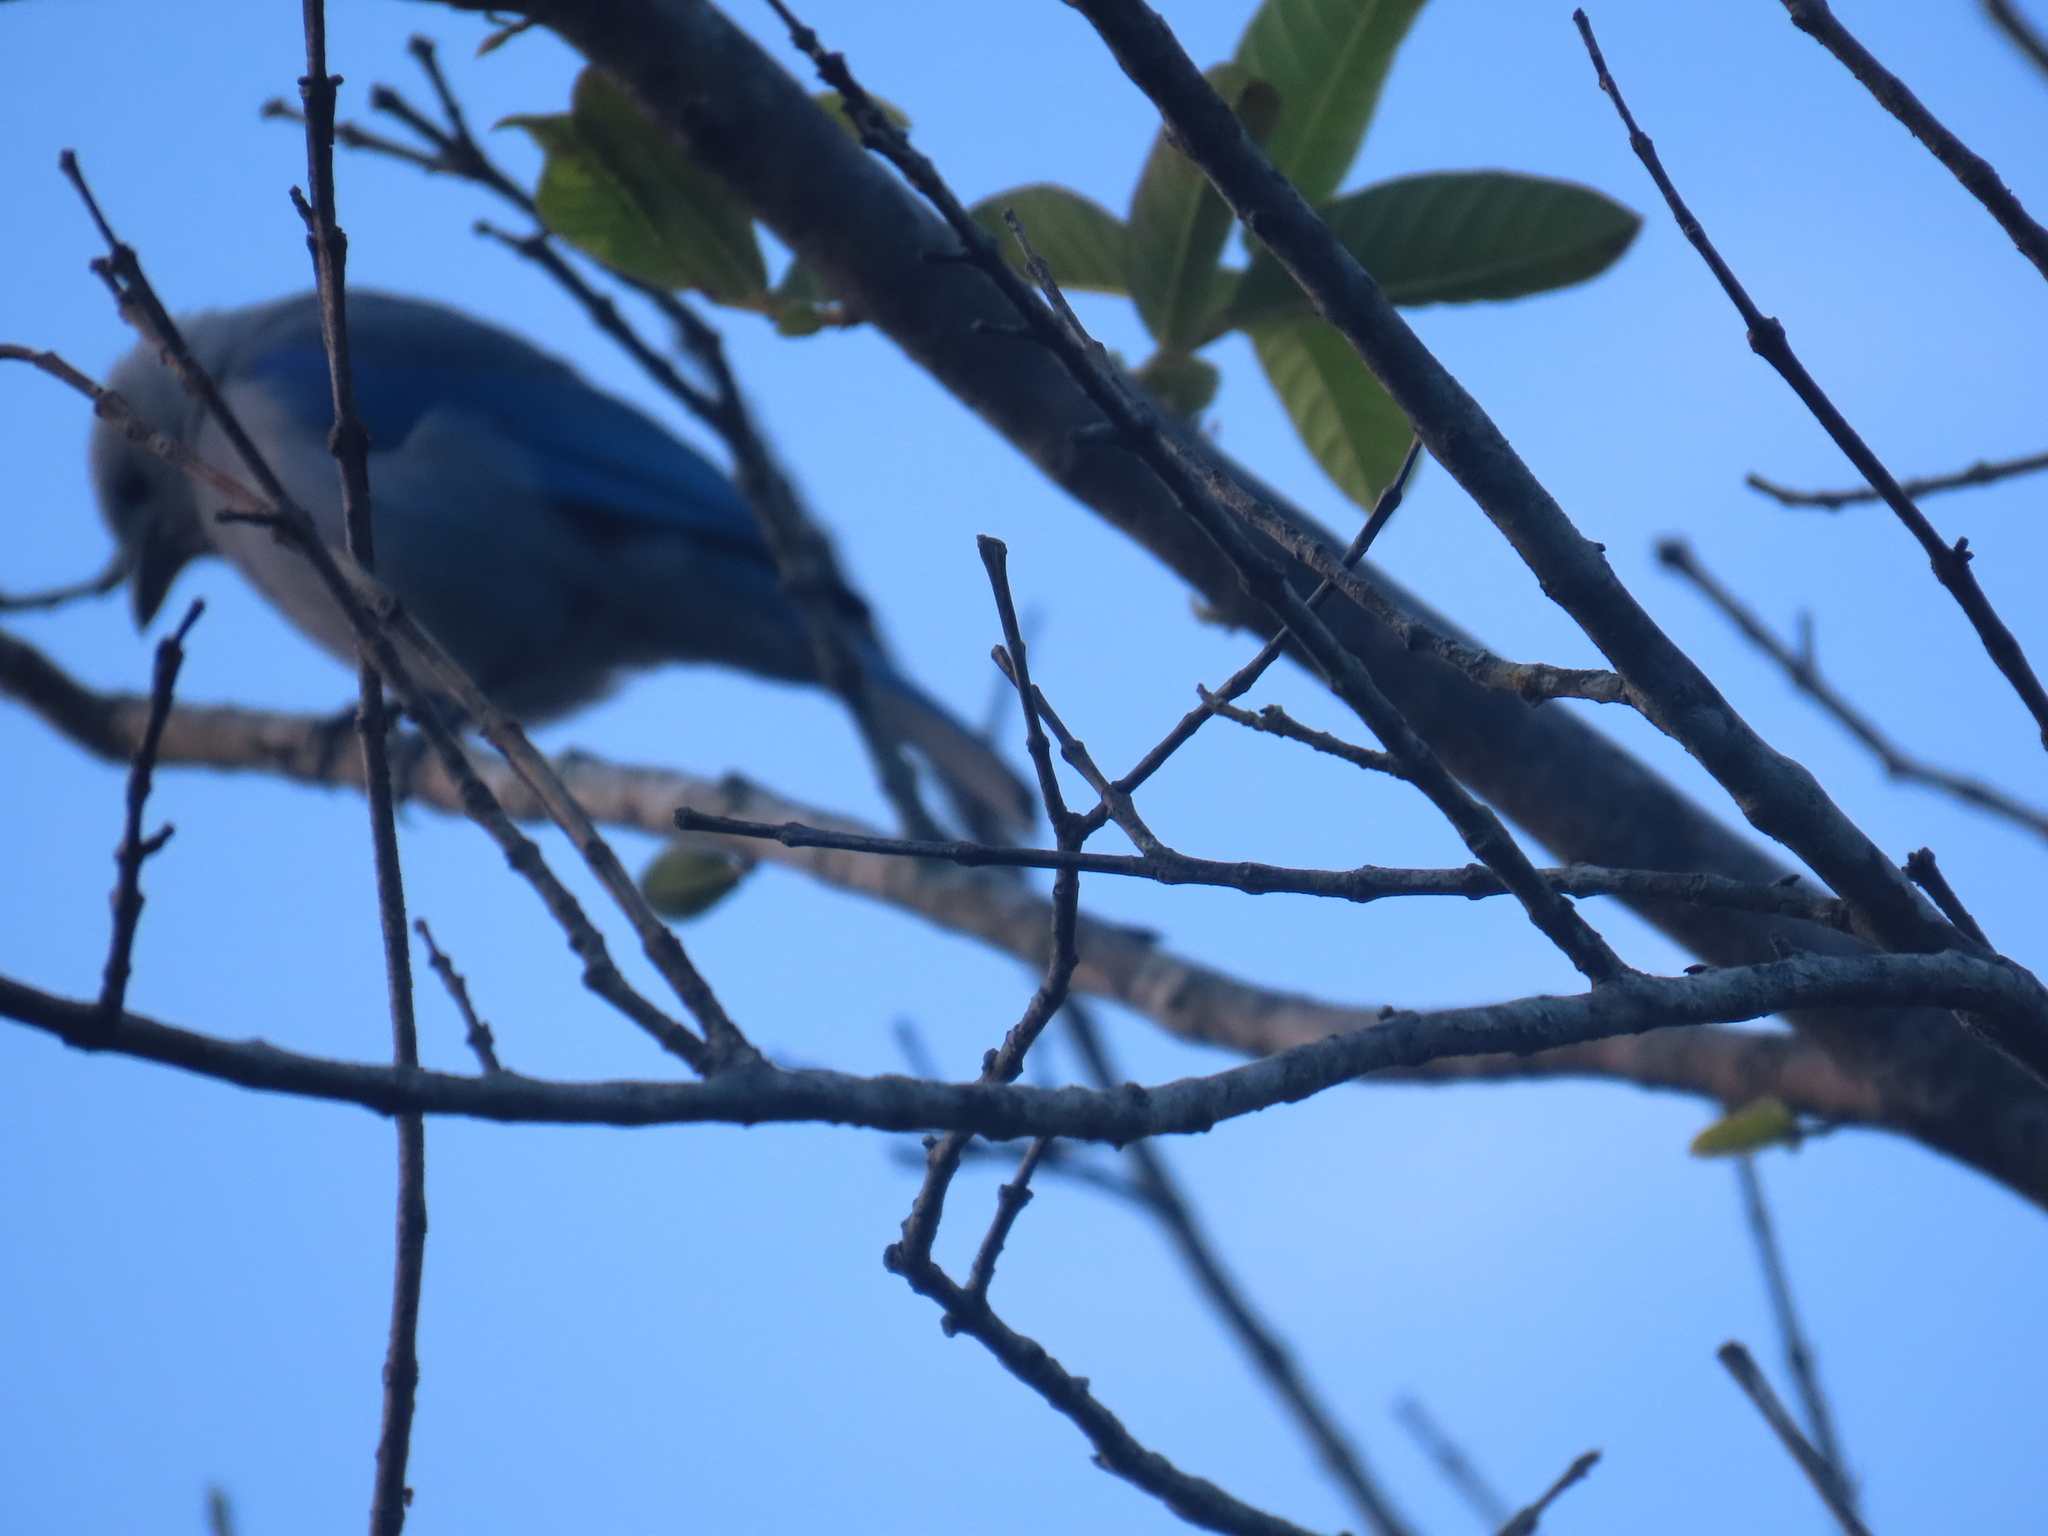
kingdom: Animalia
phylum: Chordata
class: Aves
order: Passeriformes
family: Thraupidae
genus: Thraupis
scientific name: Thraupis episcopus
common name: Blue-grey tanager
